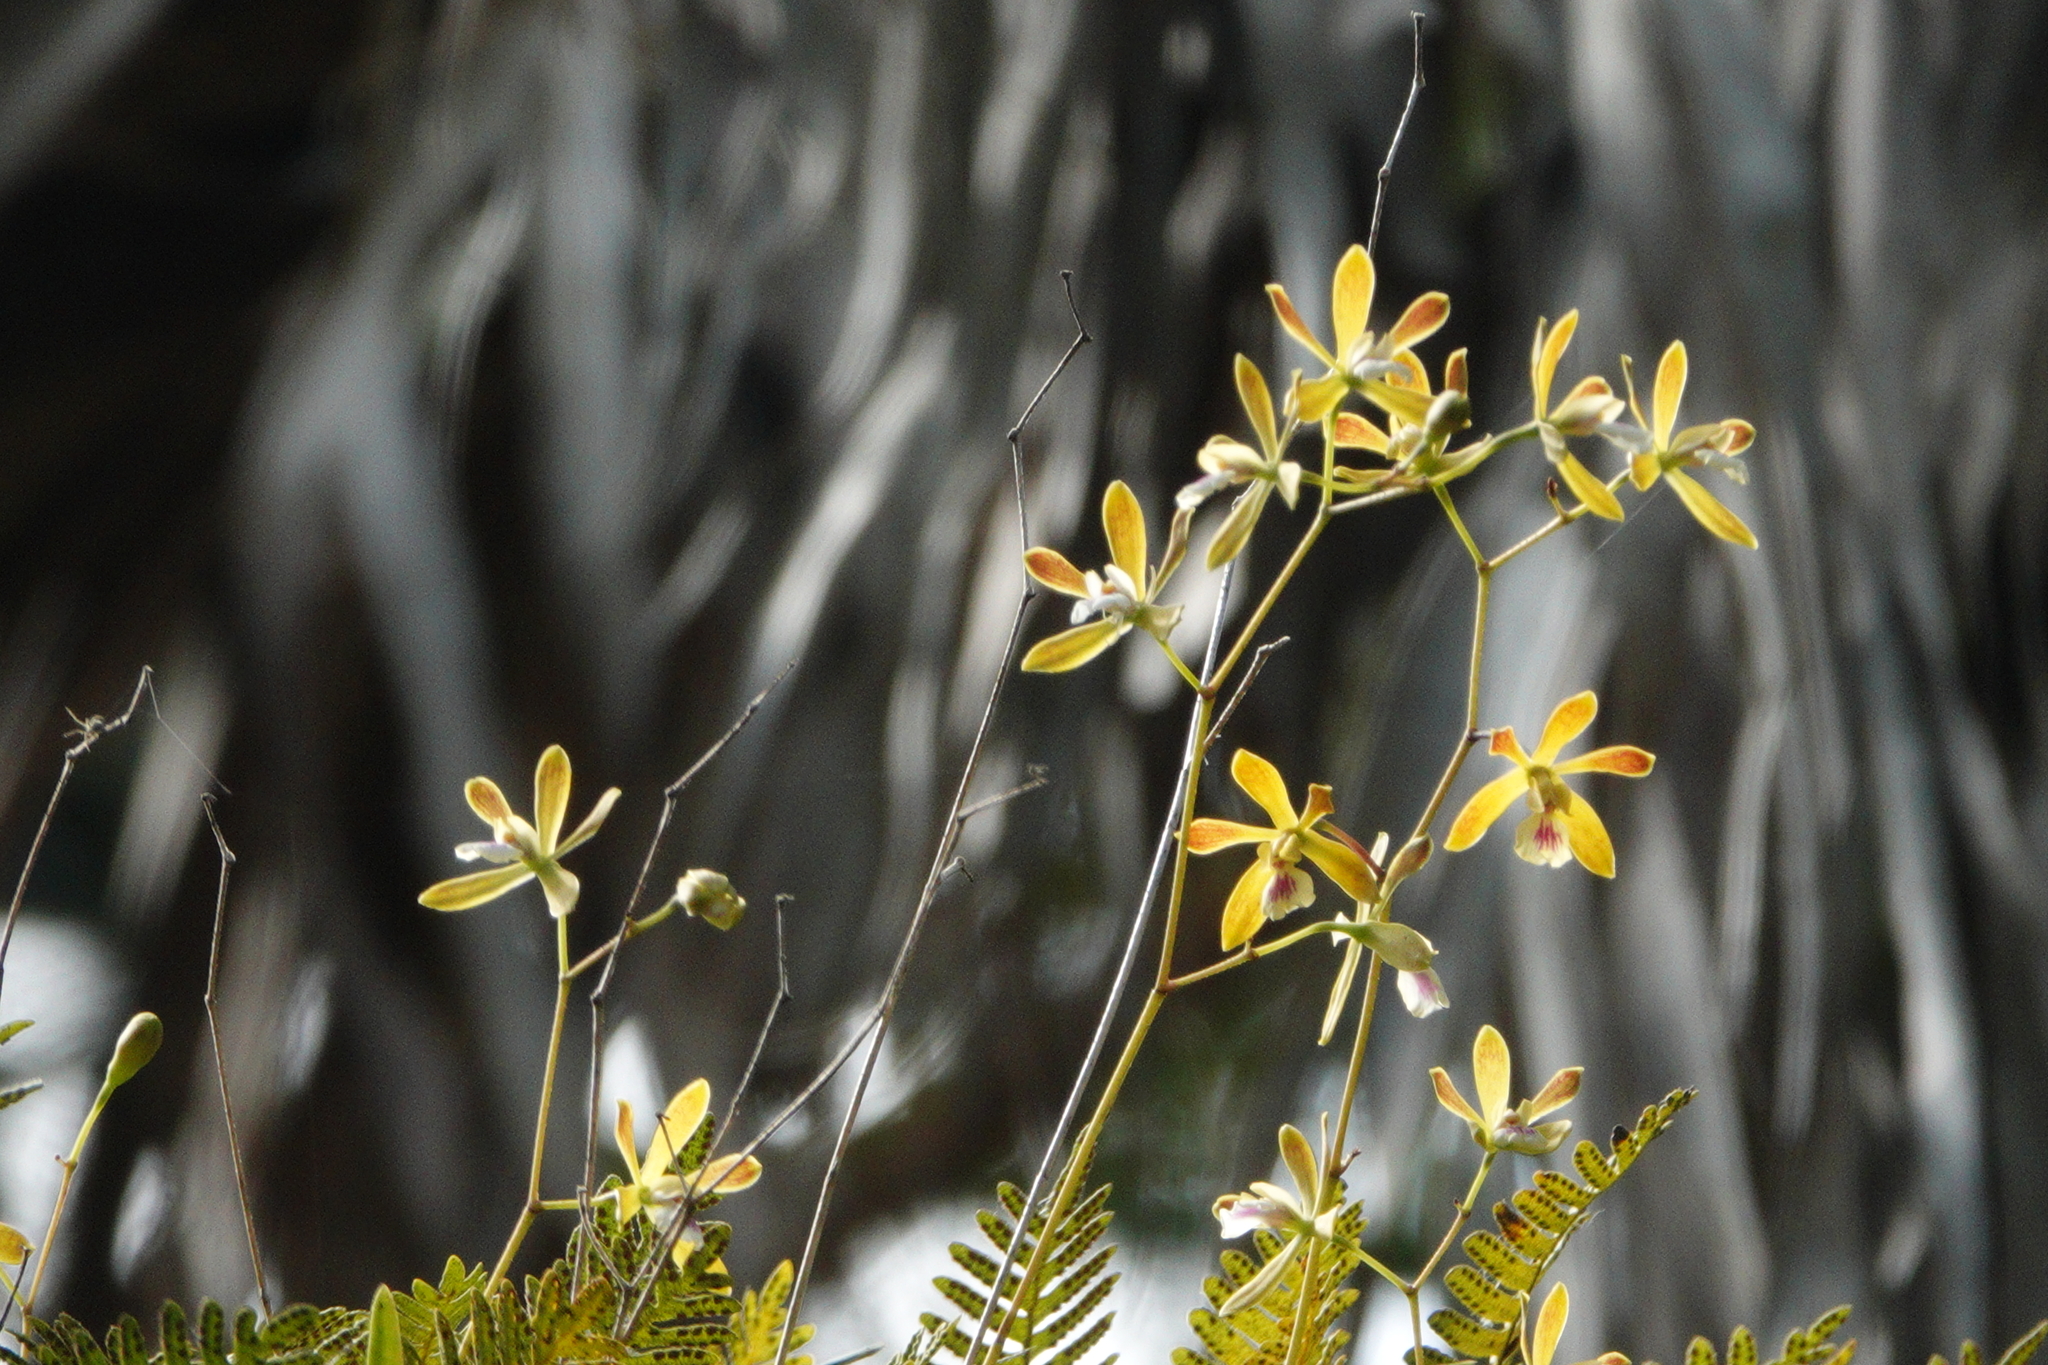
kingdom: Plantae
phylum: Tracheophyta
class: Liliopsida
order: Asparagales
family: Orchidaceae
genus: Encyclia
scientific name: Encyclia tampensis
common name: Florida butterfly orchid
